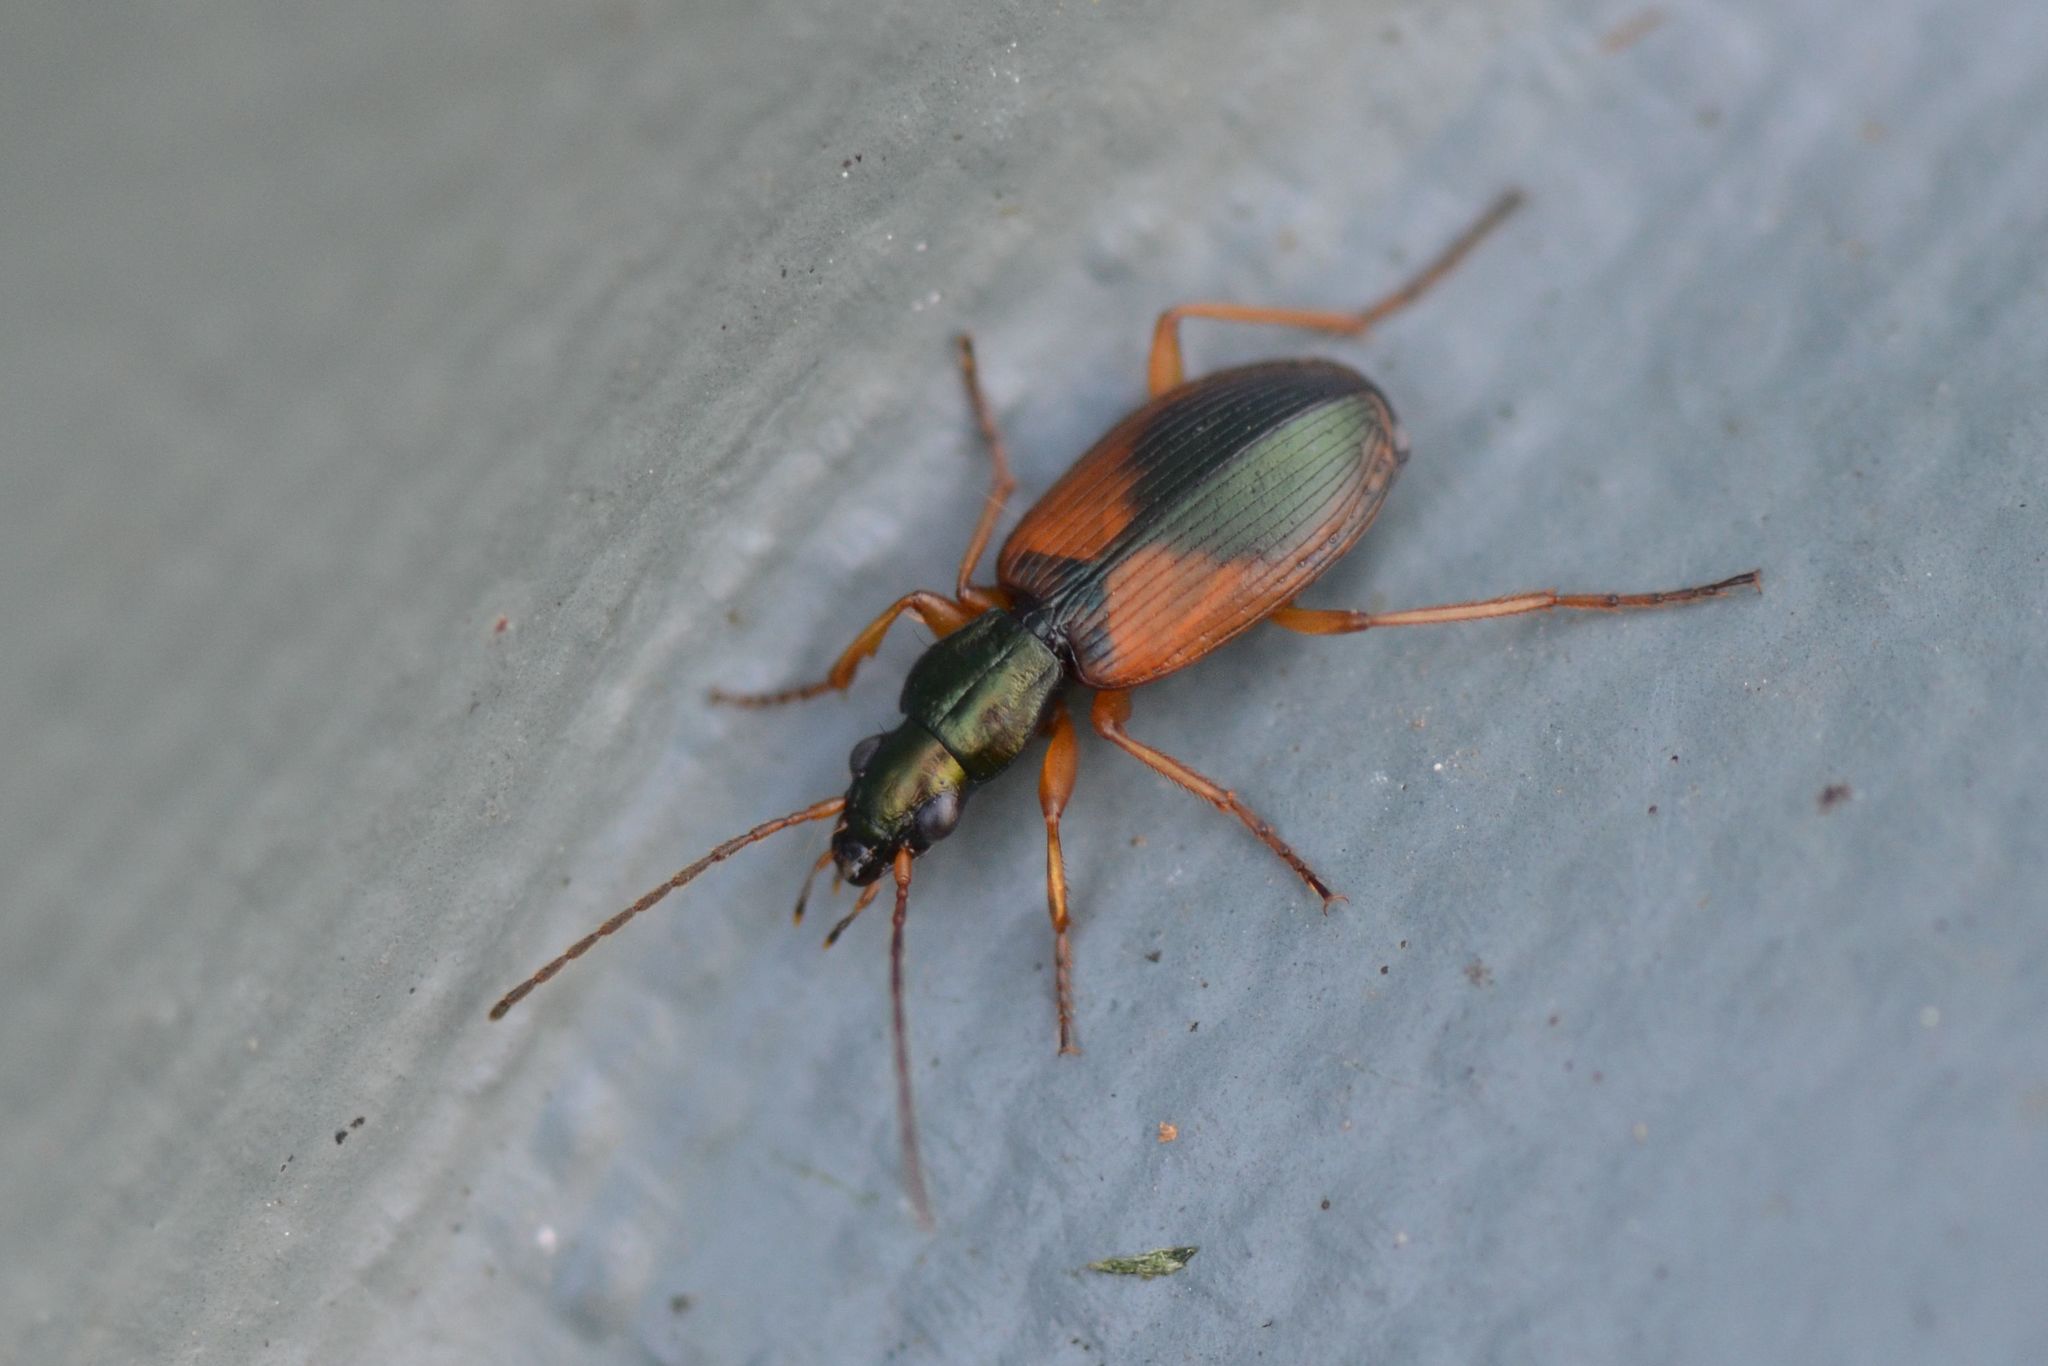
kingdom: Animalia
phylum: Arthropoda
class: Insecta
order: Coleoptera
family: Carabidae
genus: Anchomenus
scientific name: Anchomenus dorsalis
